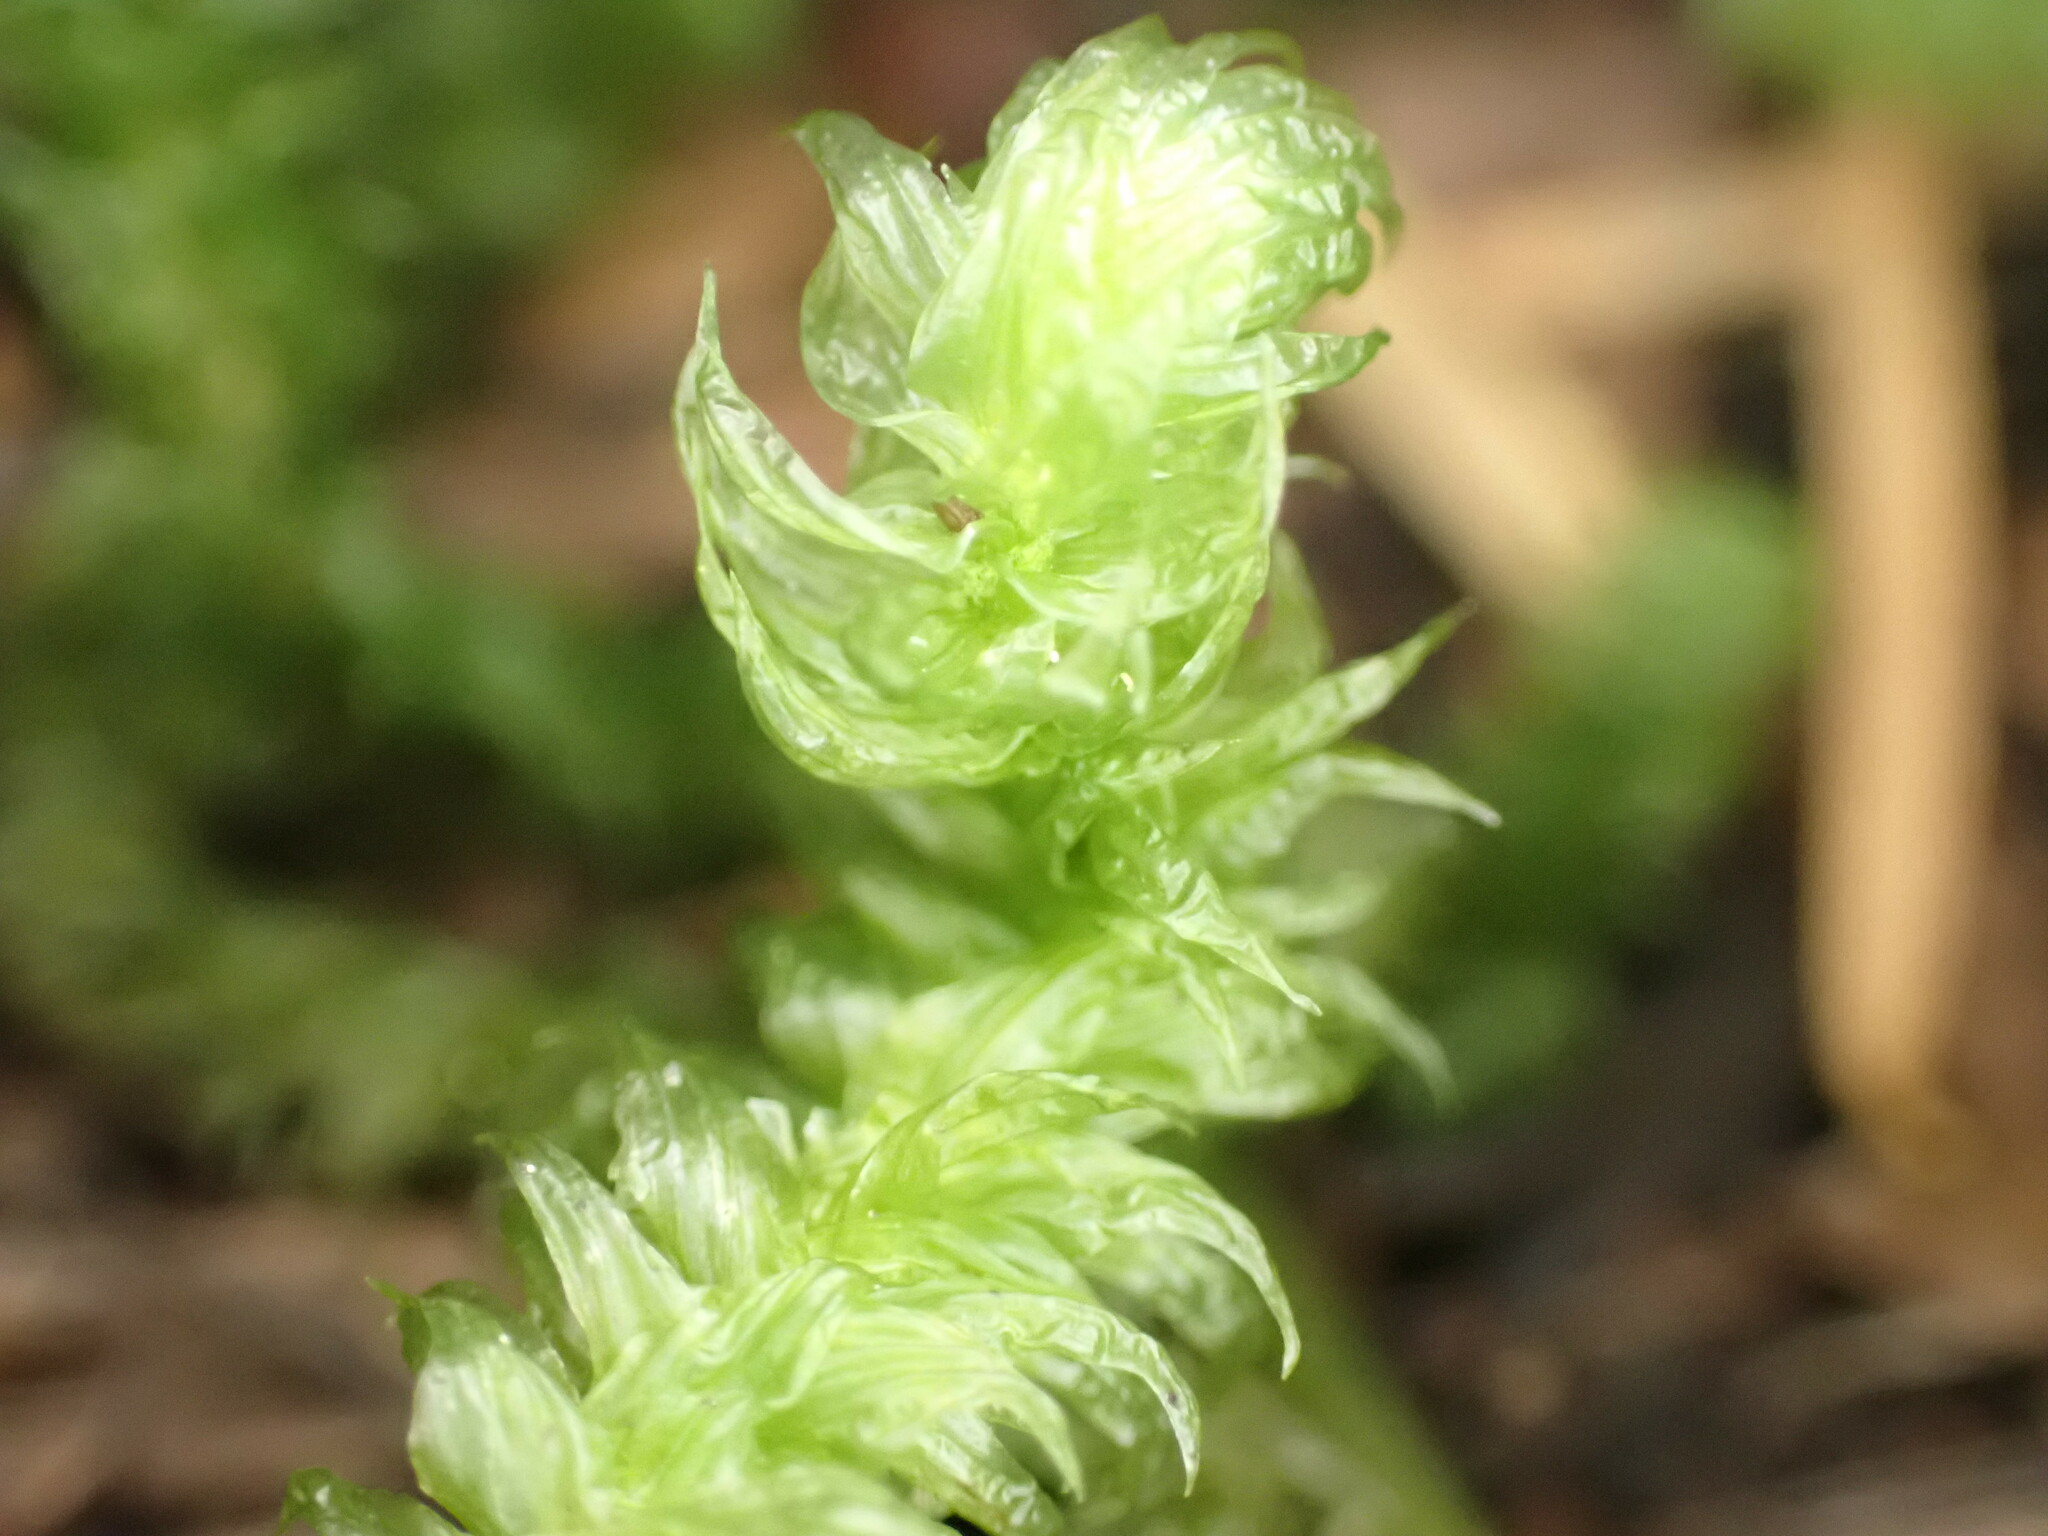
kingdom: Plantae
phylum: Bryophyta
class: Bryopsida
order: Hypnales
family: Hylocomiaceae
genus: Rhytidiopsis
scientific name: Rhytidiopsis robusta
